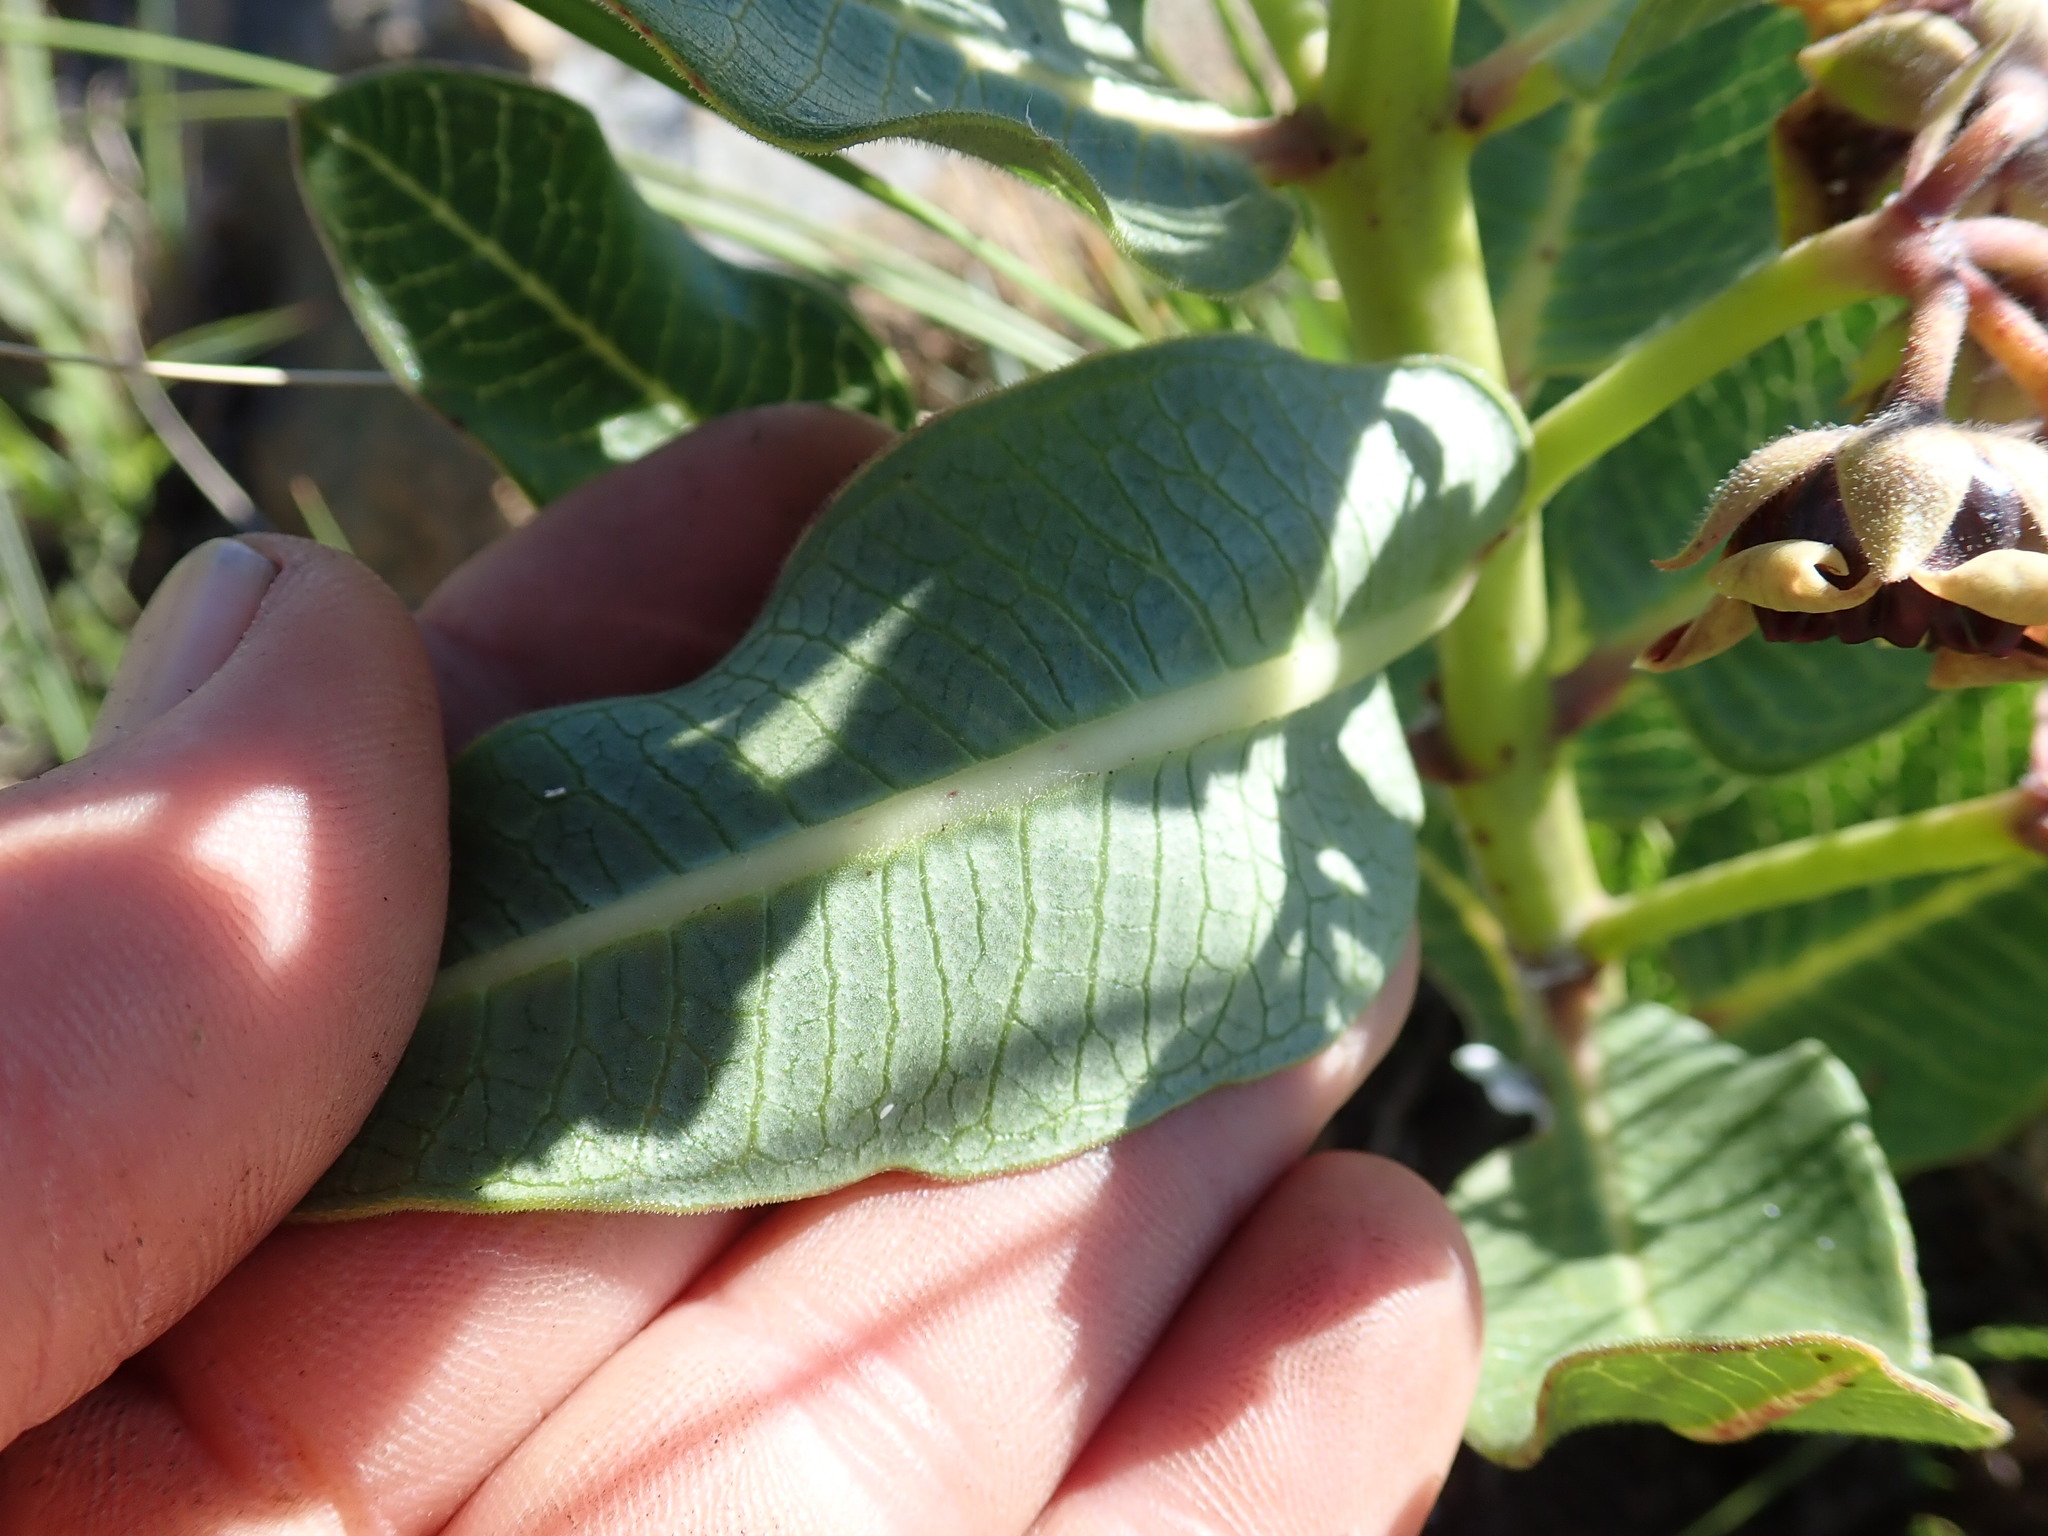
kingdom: Plantae
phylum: Tracheophyta
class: Magnoliopsida
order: Gentianales
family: Apocynaceae
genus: Pachycarpus
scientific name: Pachycarpus concolor
